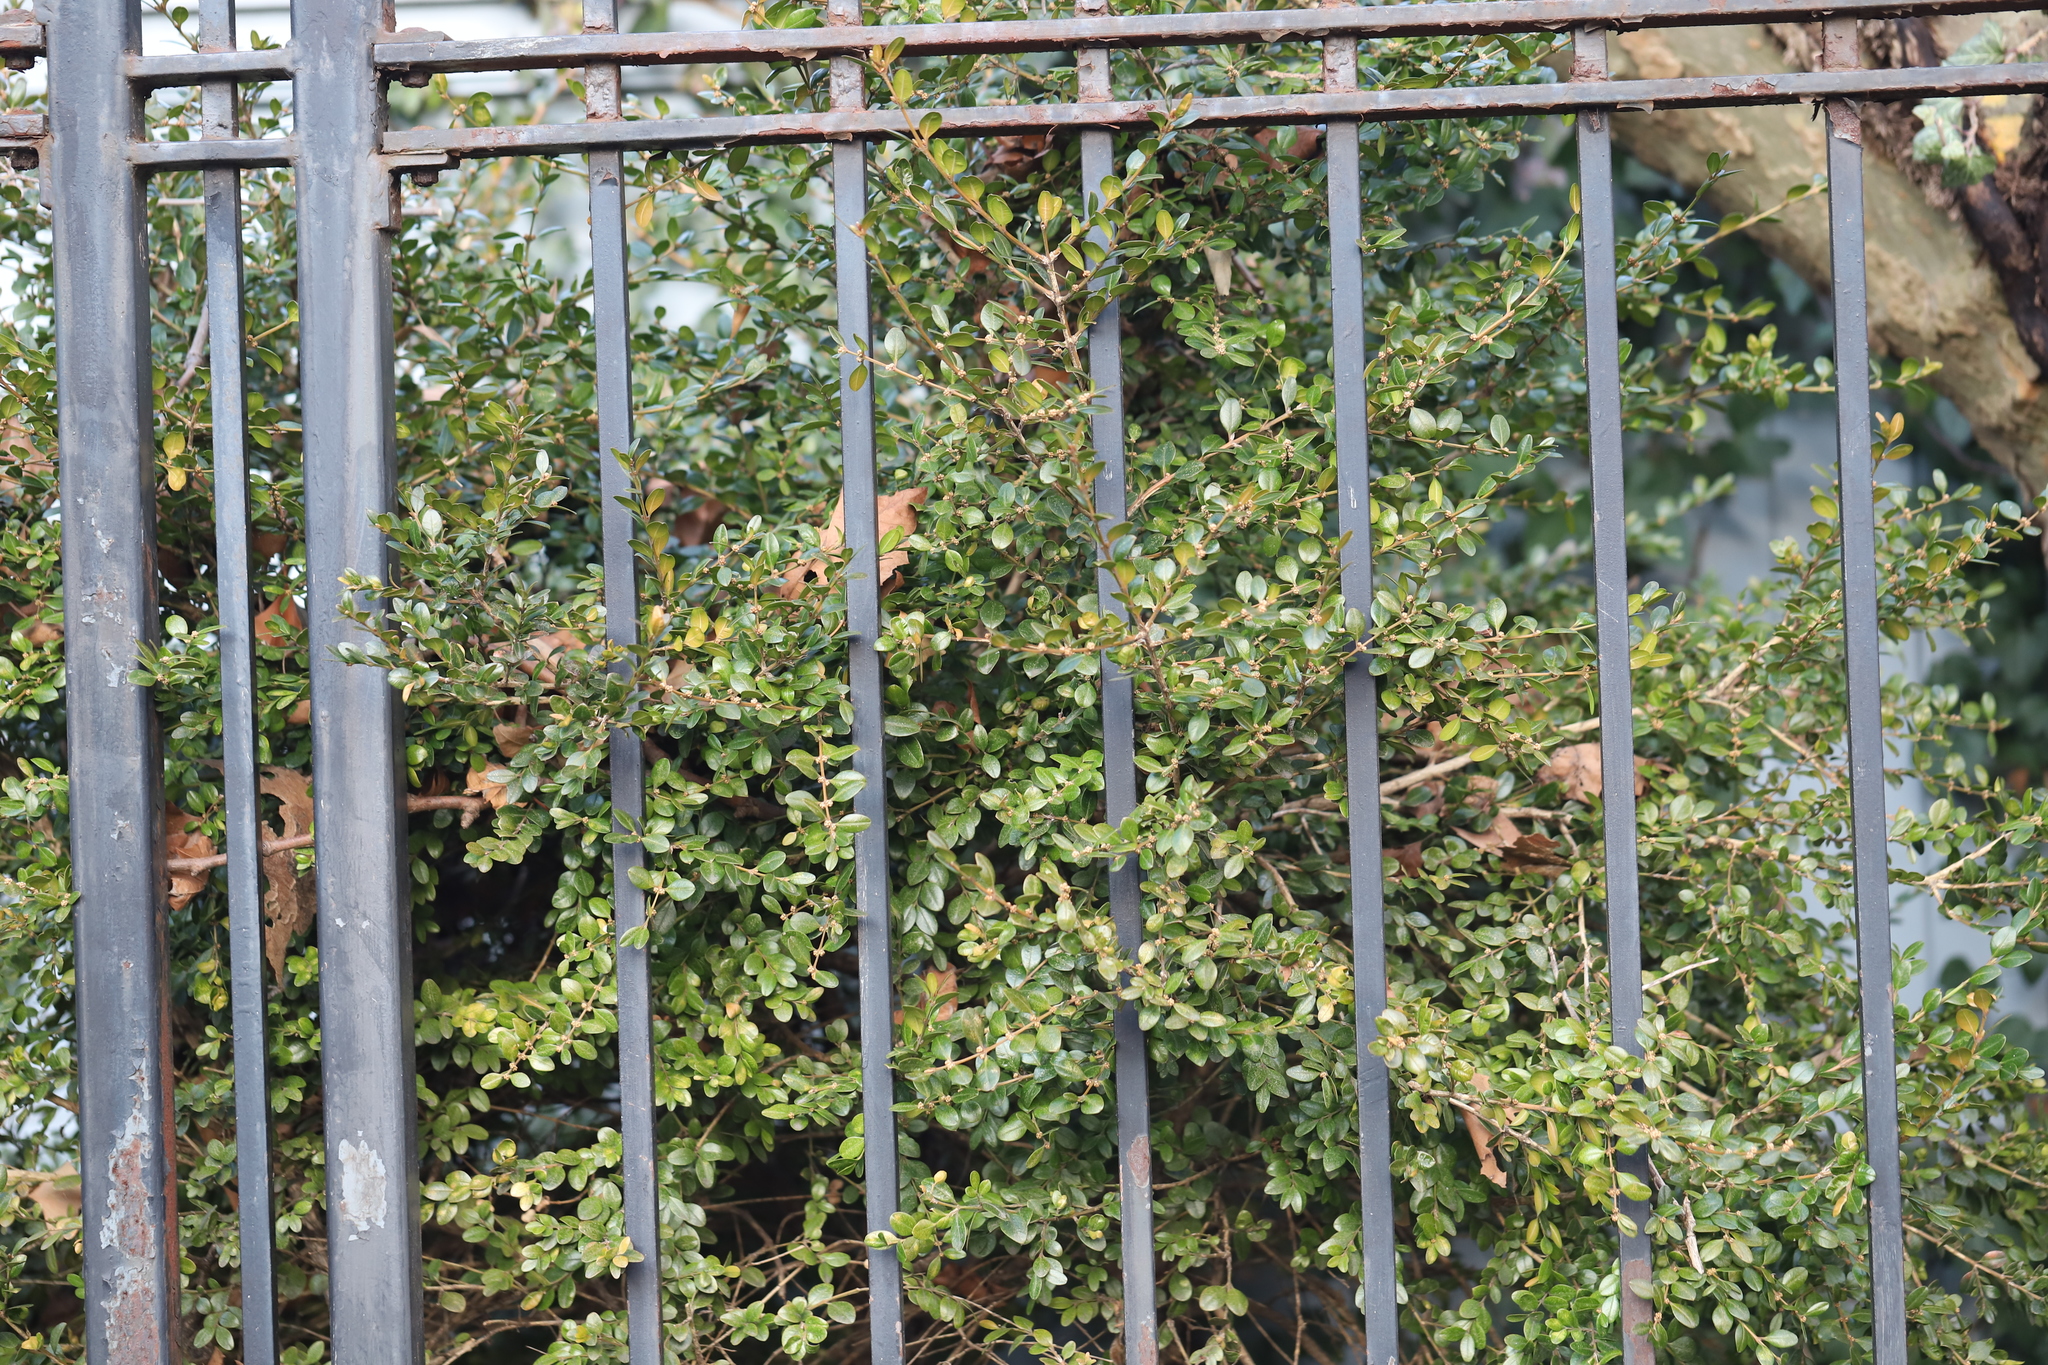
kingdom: Animalia
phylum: Arthropoda
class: Arachnida
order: Trombidiformes
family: Tetranychidae
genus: Eurytetranychus
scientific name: Eurytetranychus buxi
